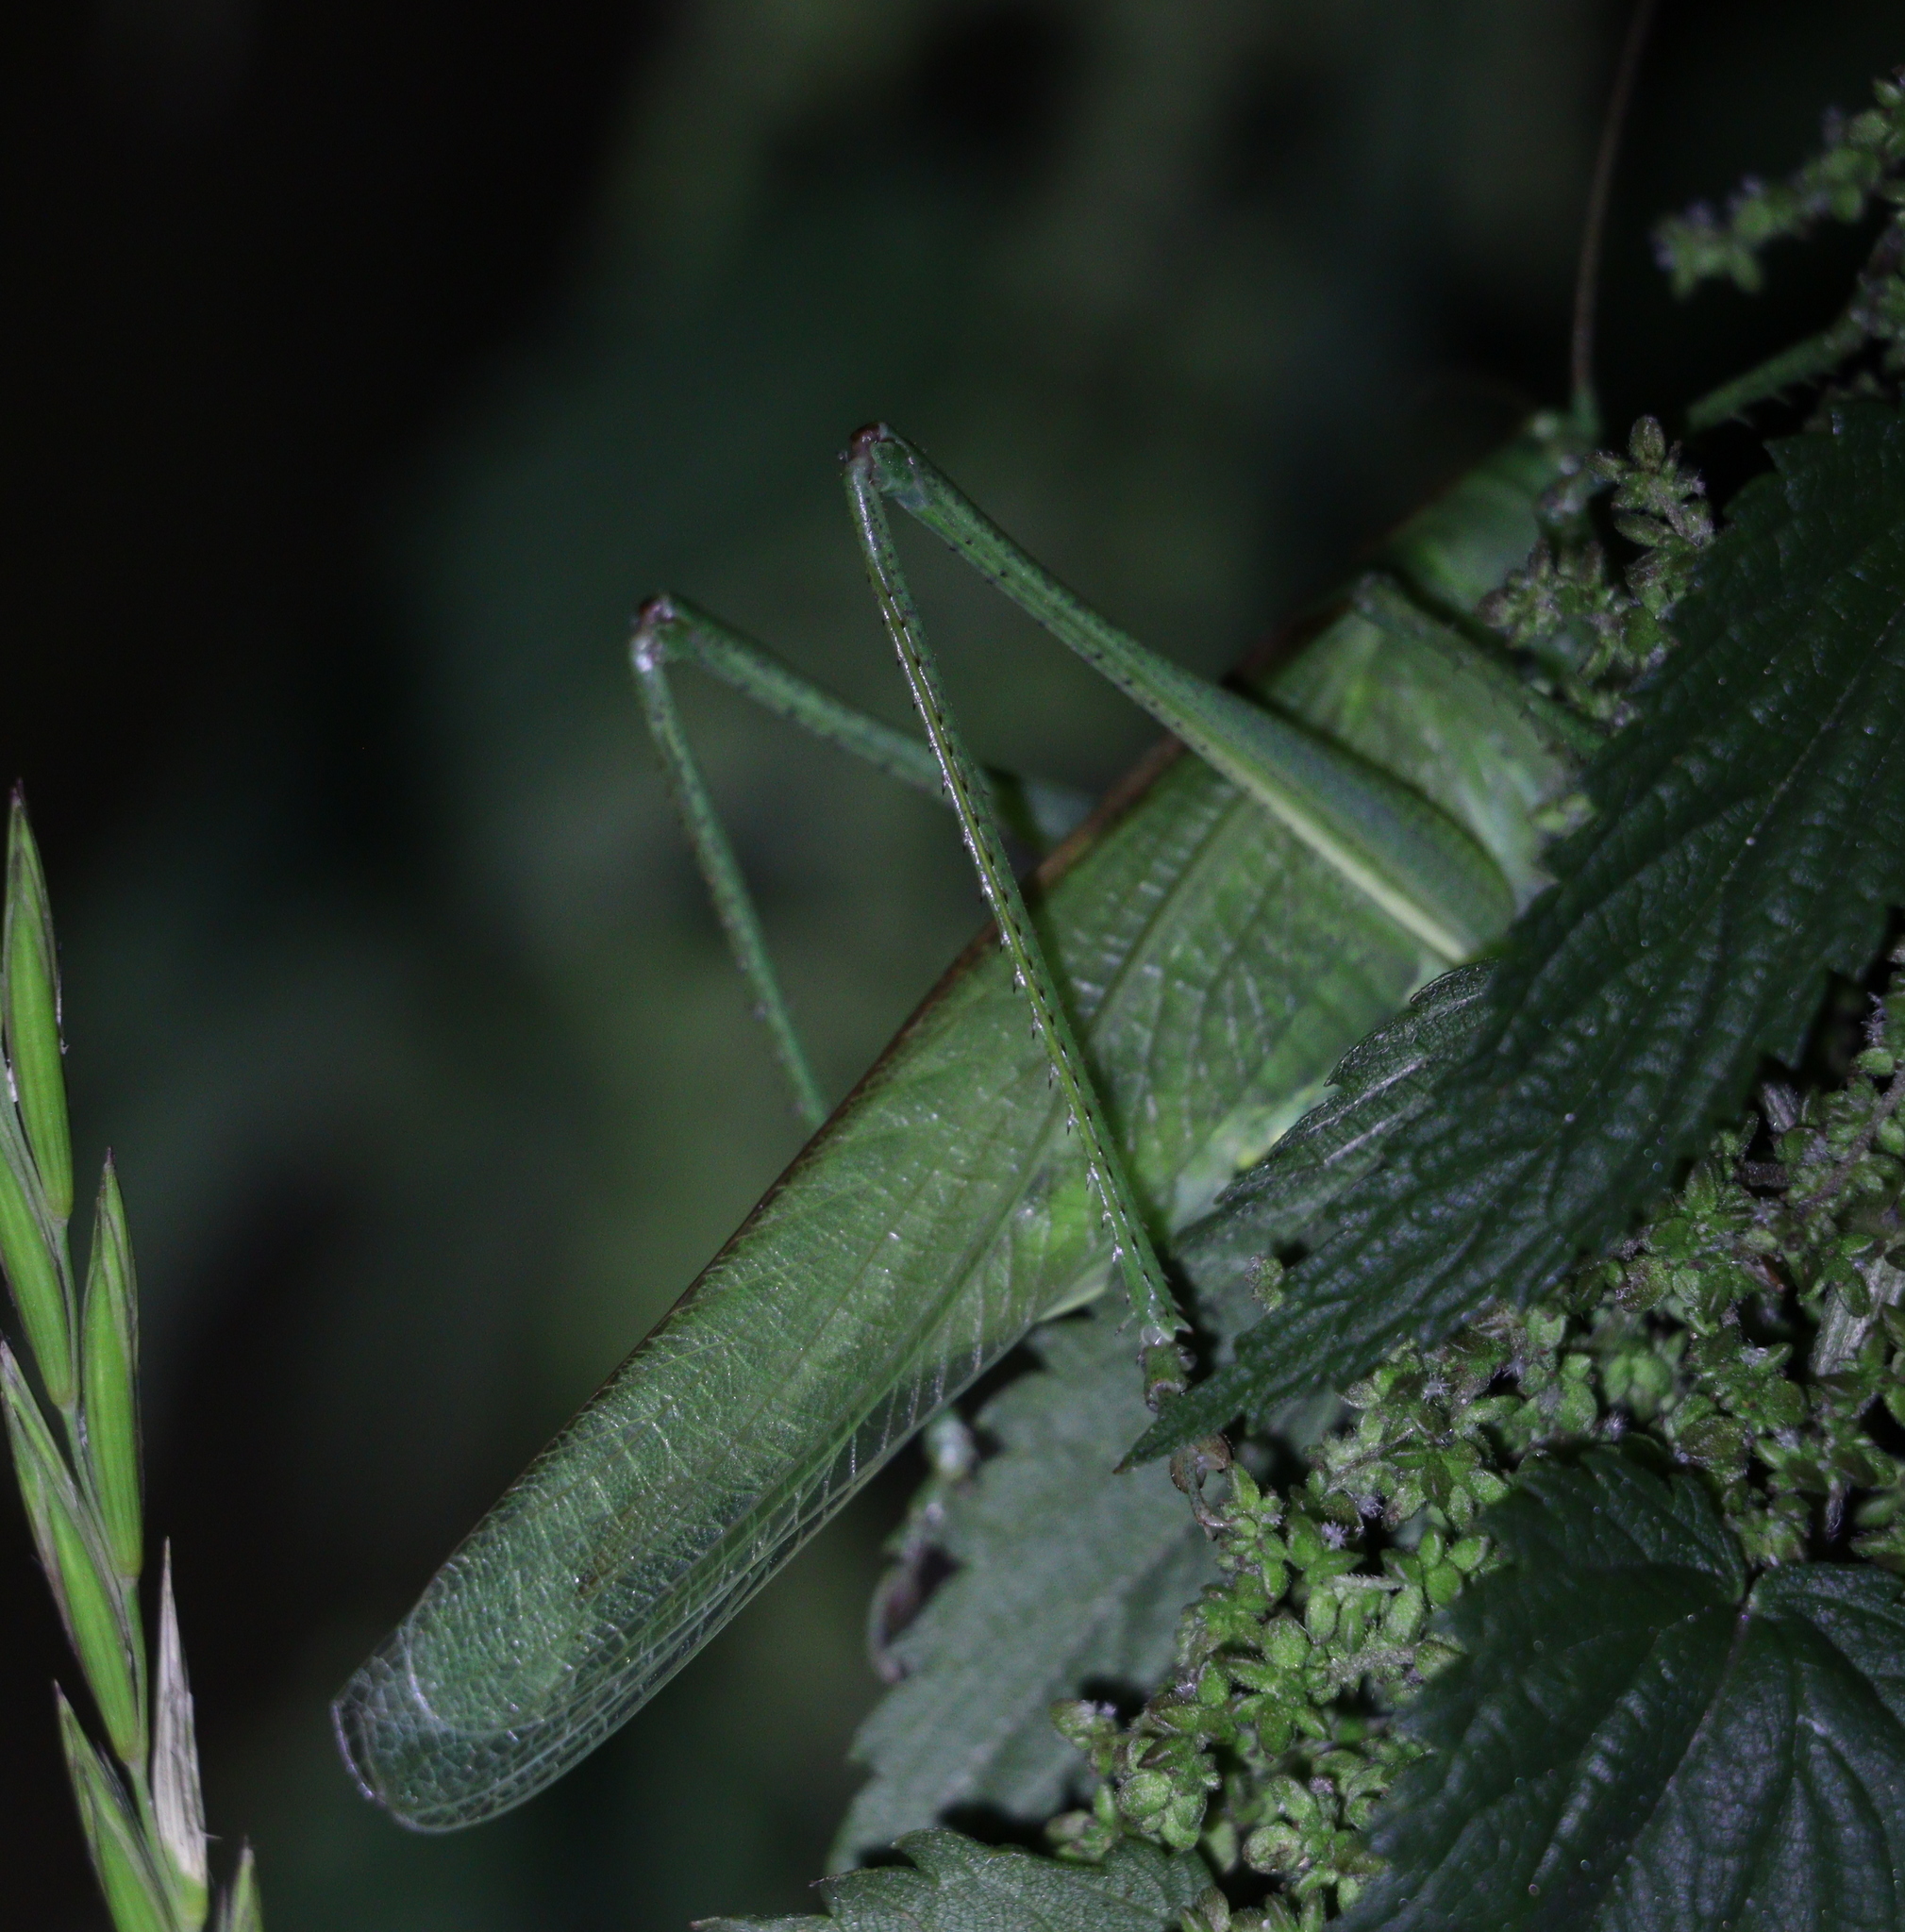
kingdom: Animalia
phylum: Arthropoda
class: Insecta
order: Orthoptera
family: Tettigoniidae
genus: Tettigonia
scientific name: Tettigonia viridissima
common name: Great green bush-cricket
